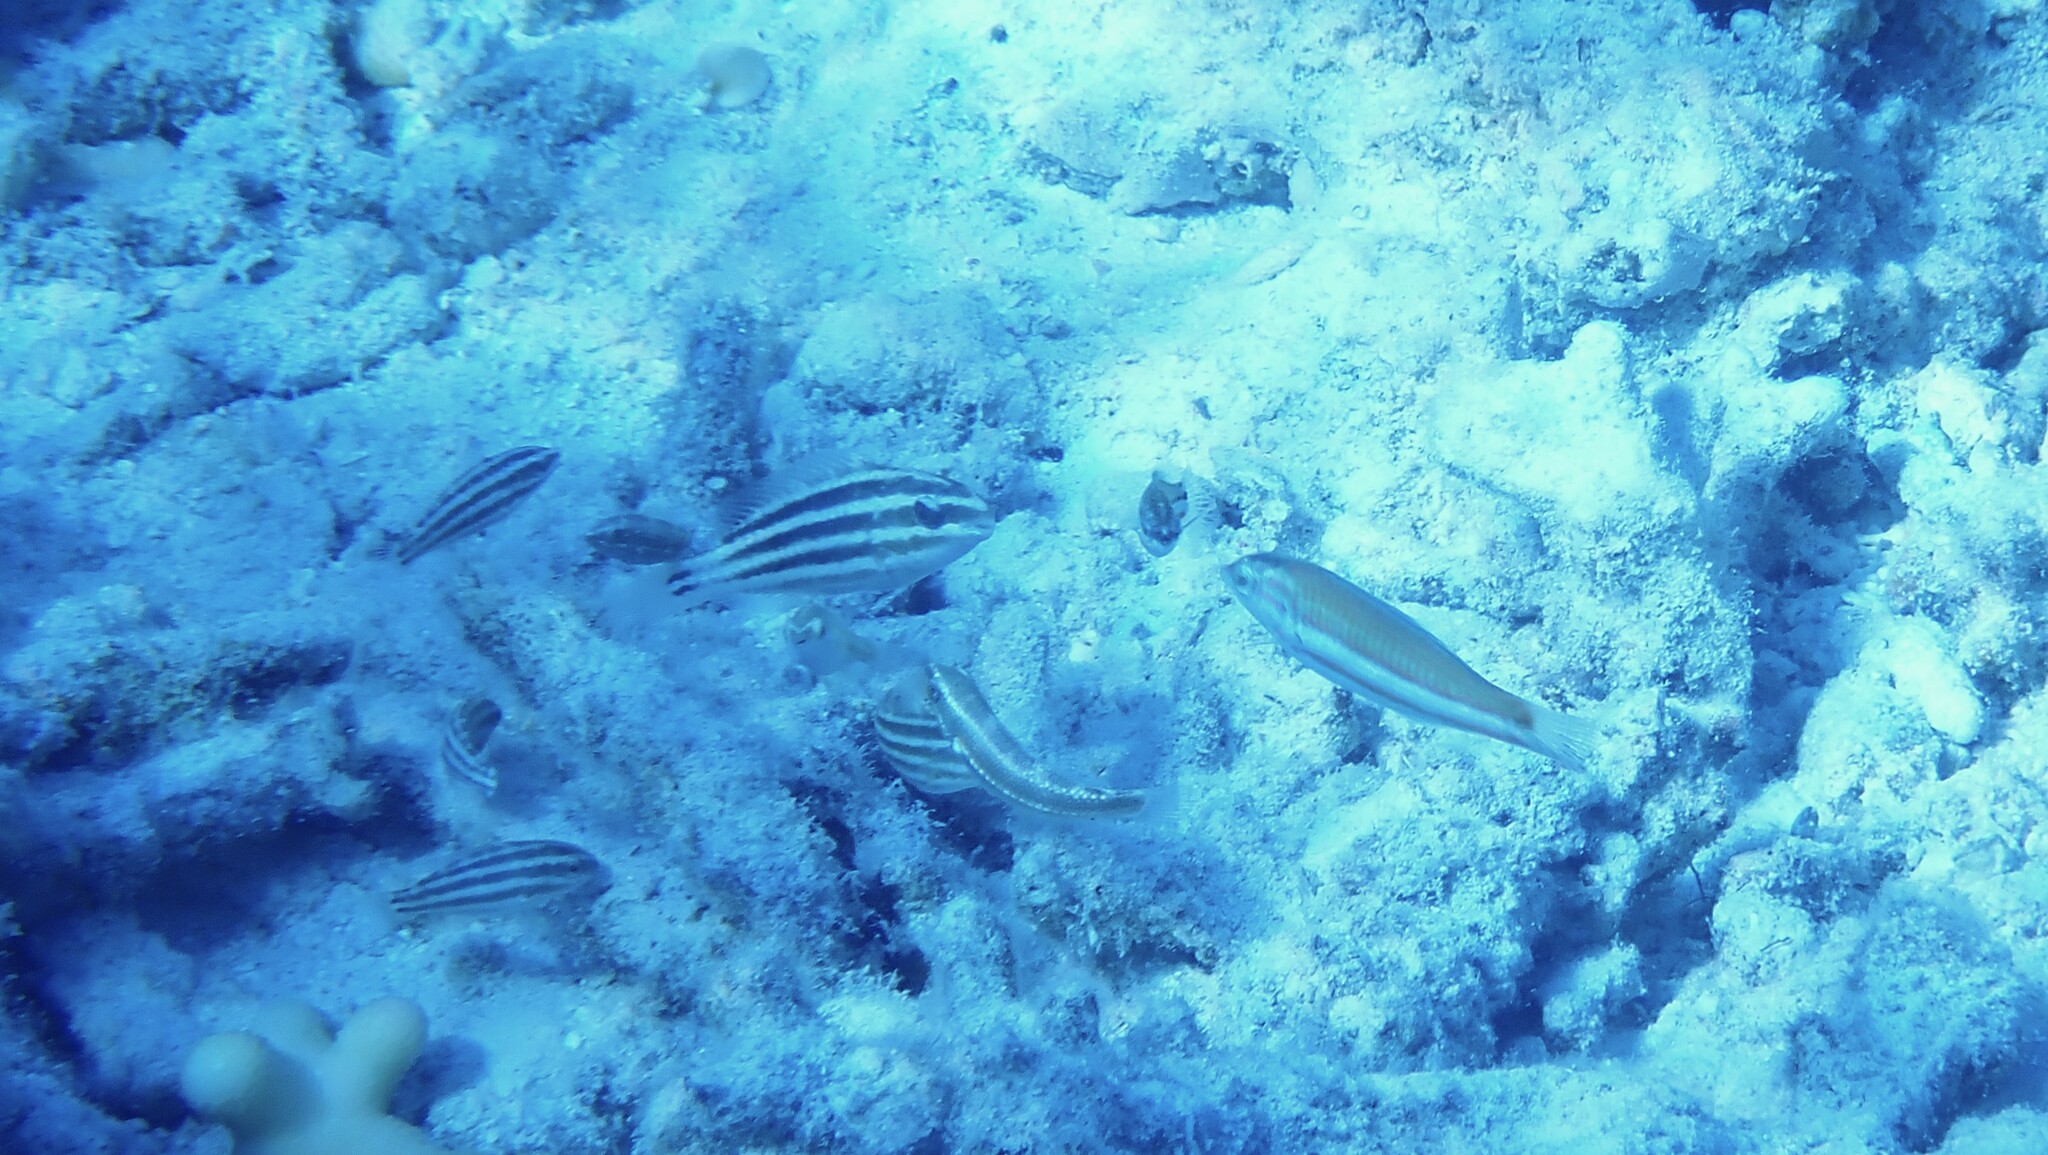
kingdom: Animalia
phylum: Chordata
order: Perciformes
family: Scaridae
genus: Chlorurus
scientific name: Chlorurus sordidus
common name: Bullethead parrotfish
